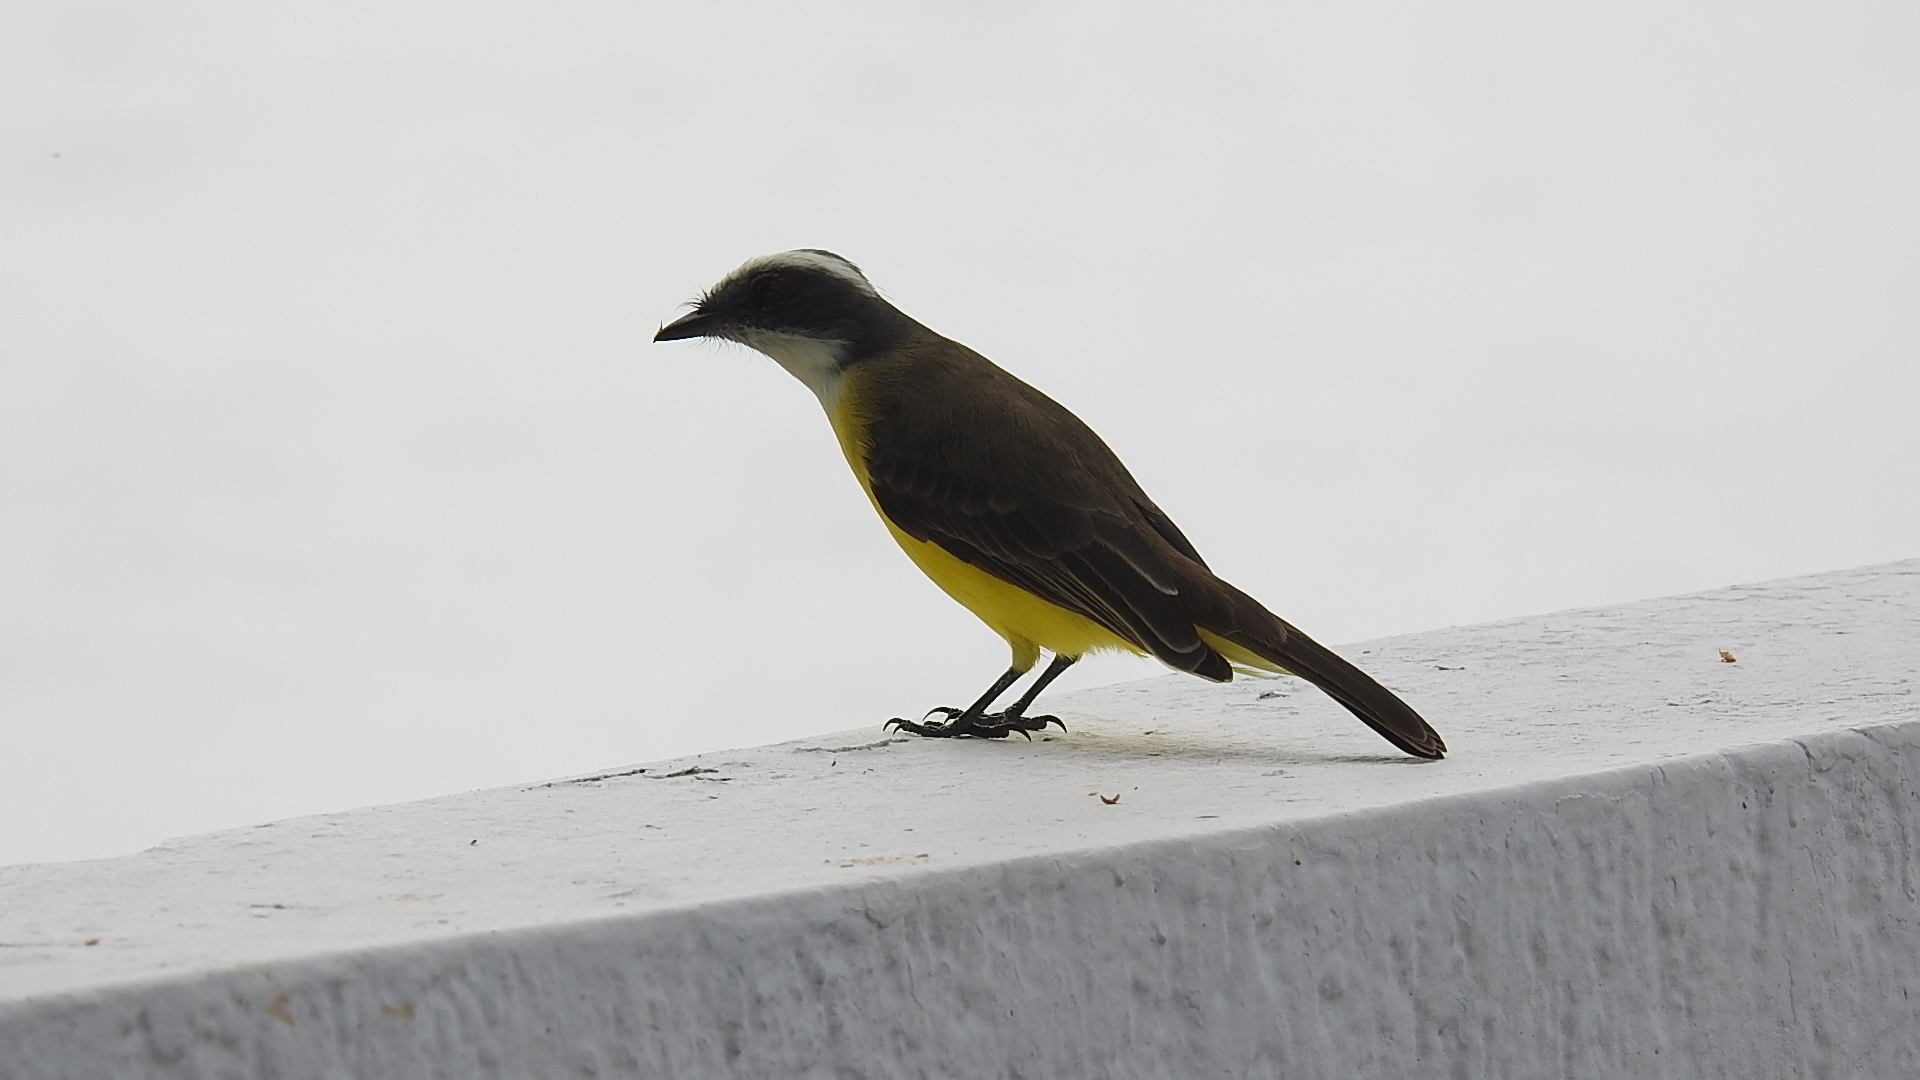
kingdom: Animalia
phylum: Chordata
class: Aves
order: Passeriformes
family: Tyrannidae
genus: Myiozetetes
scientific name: Myiozetetes similis
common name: Social flycatcher
